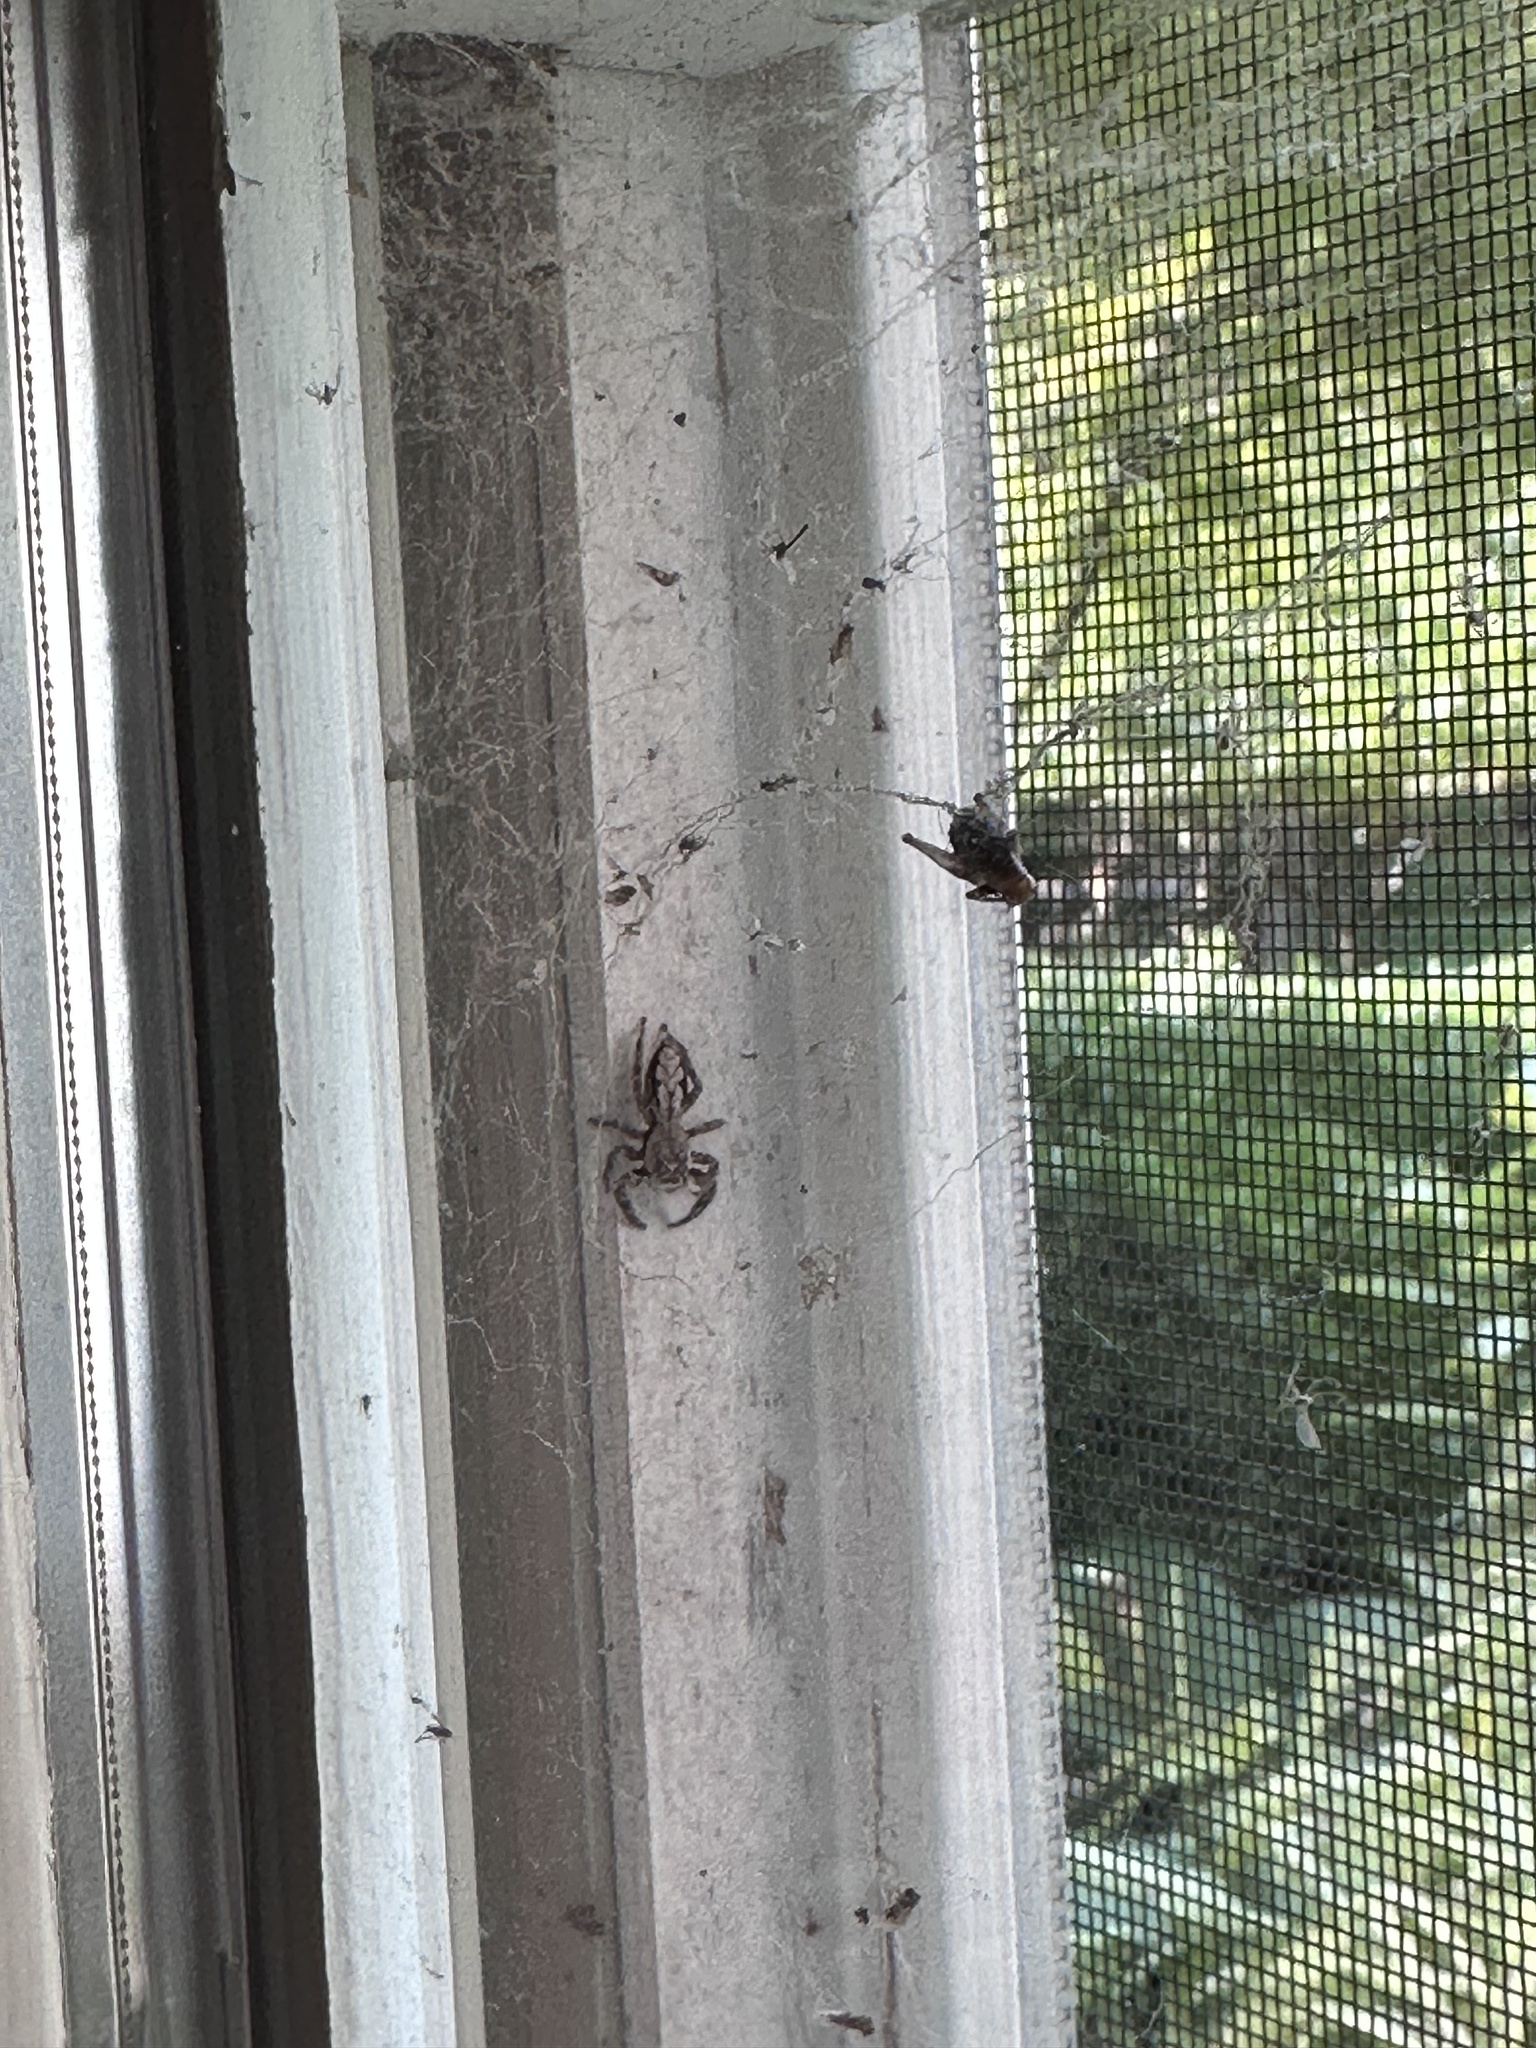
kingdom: Animalia
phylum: Arthropoda
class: Arachnida
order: Araneae
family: Salticidae
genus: Platycryptus
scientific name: Platycryptus undatus
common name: Tan jumping spider
